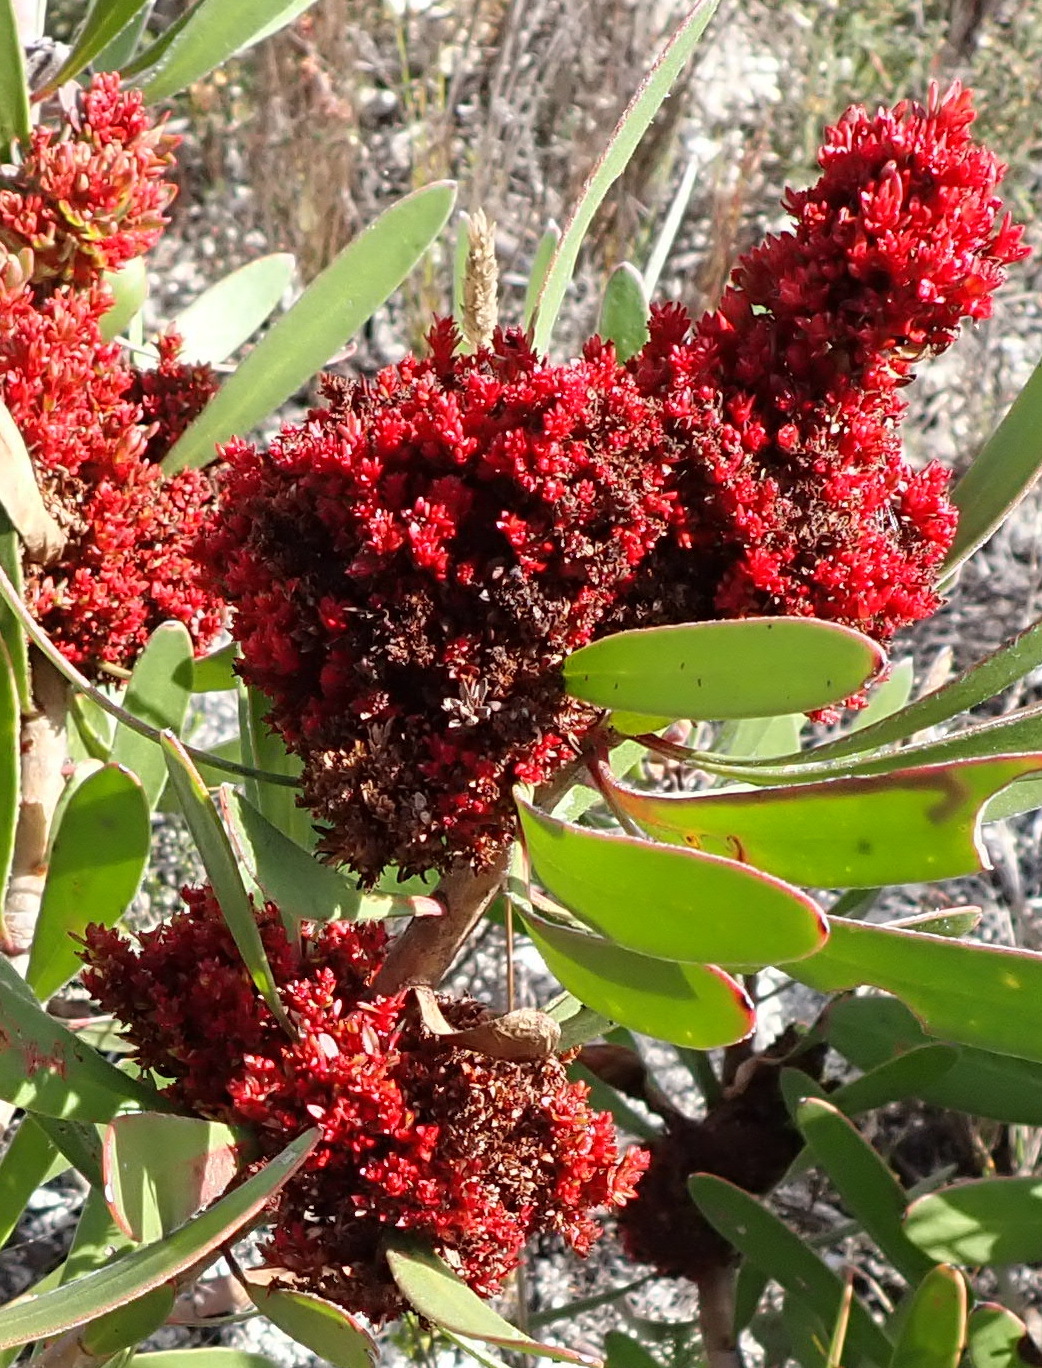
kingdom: Bacteria
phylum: Firmicutes
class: Bacilli
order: Acholeplasmatales
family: Acholeplasmataceae
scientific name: Acholeplasmataceae
